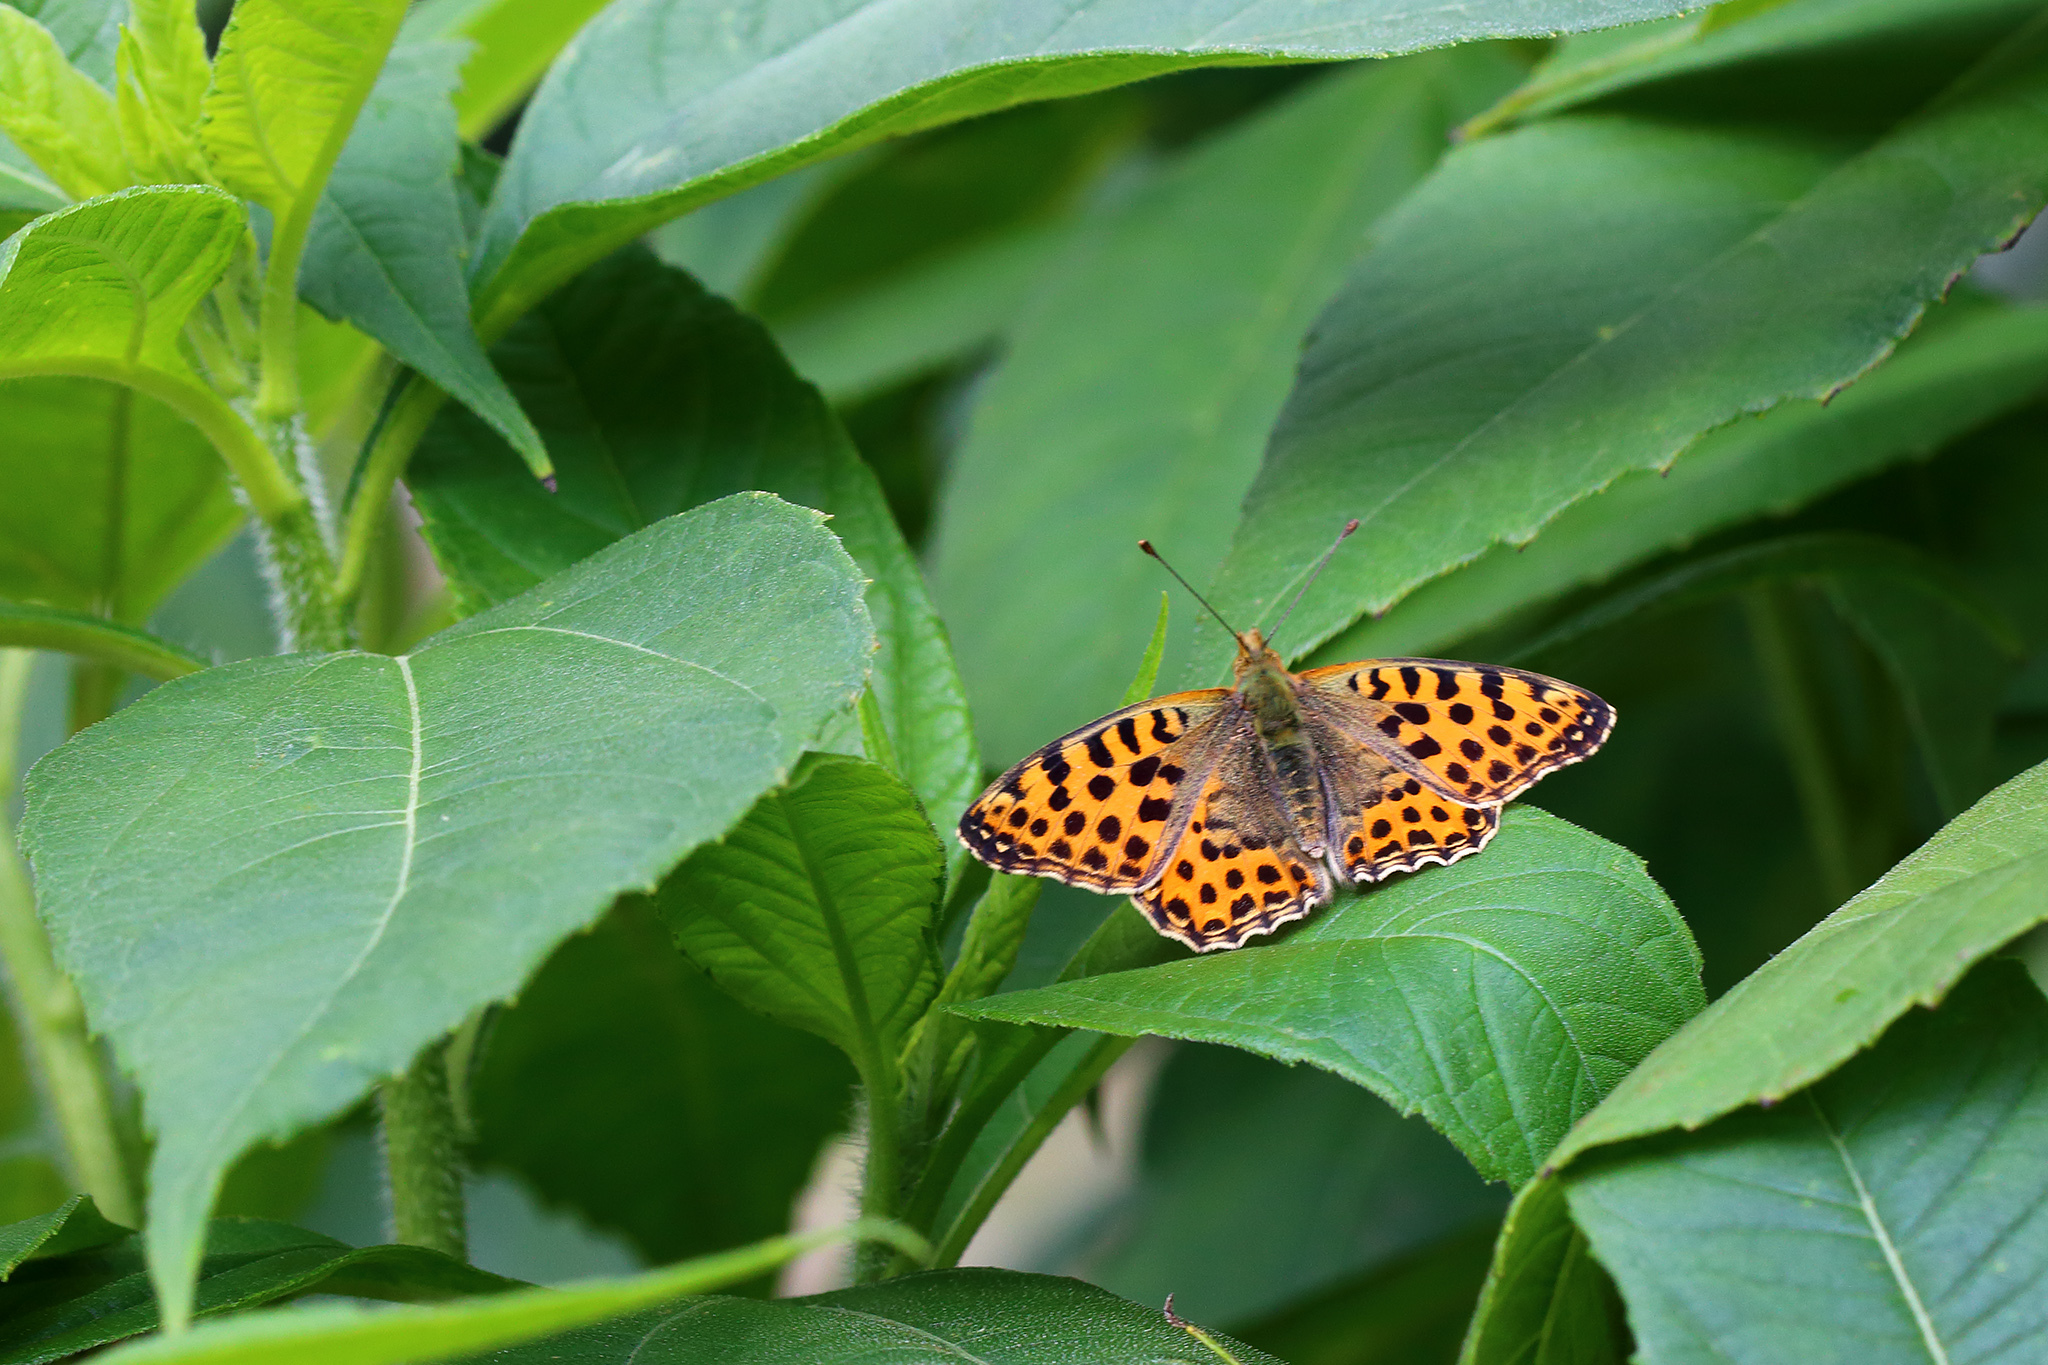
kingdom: Animalia
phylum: Arthropoda
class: Insecta
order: Lepidoptera
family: Nymphalidae
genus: Issoria
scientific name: Issoria lathonia
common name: Queen of spain fritillary
